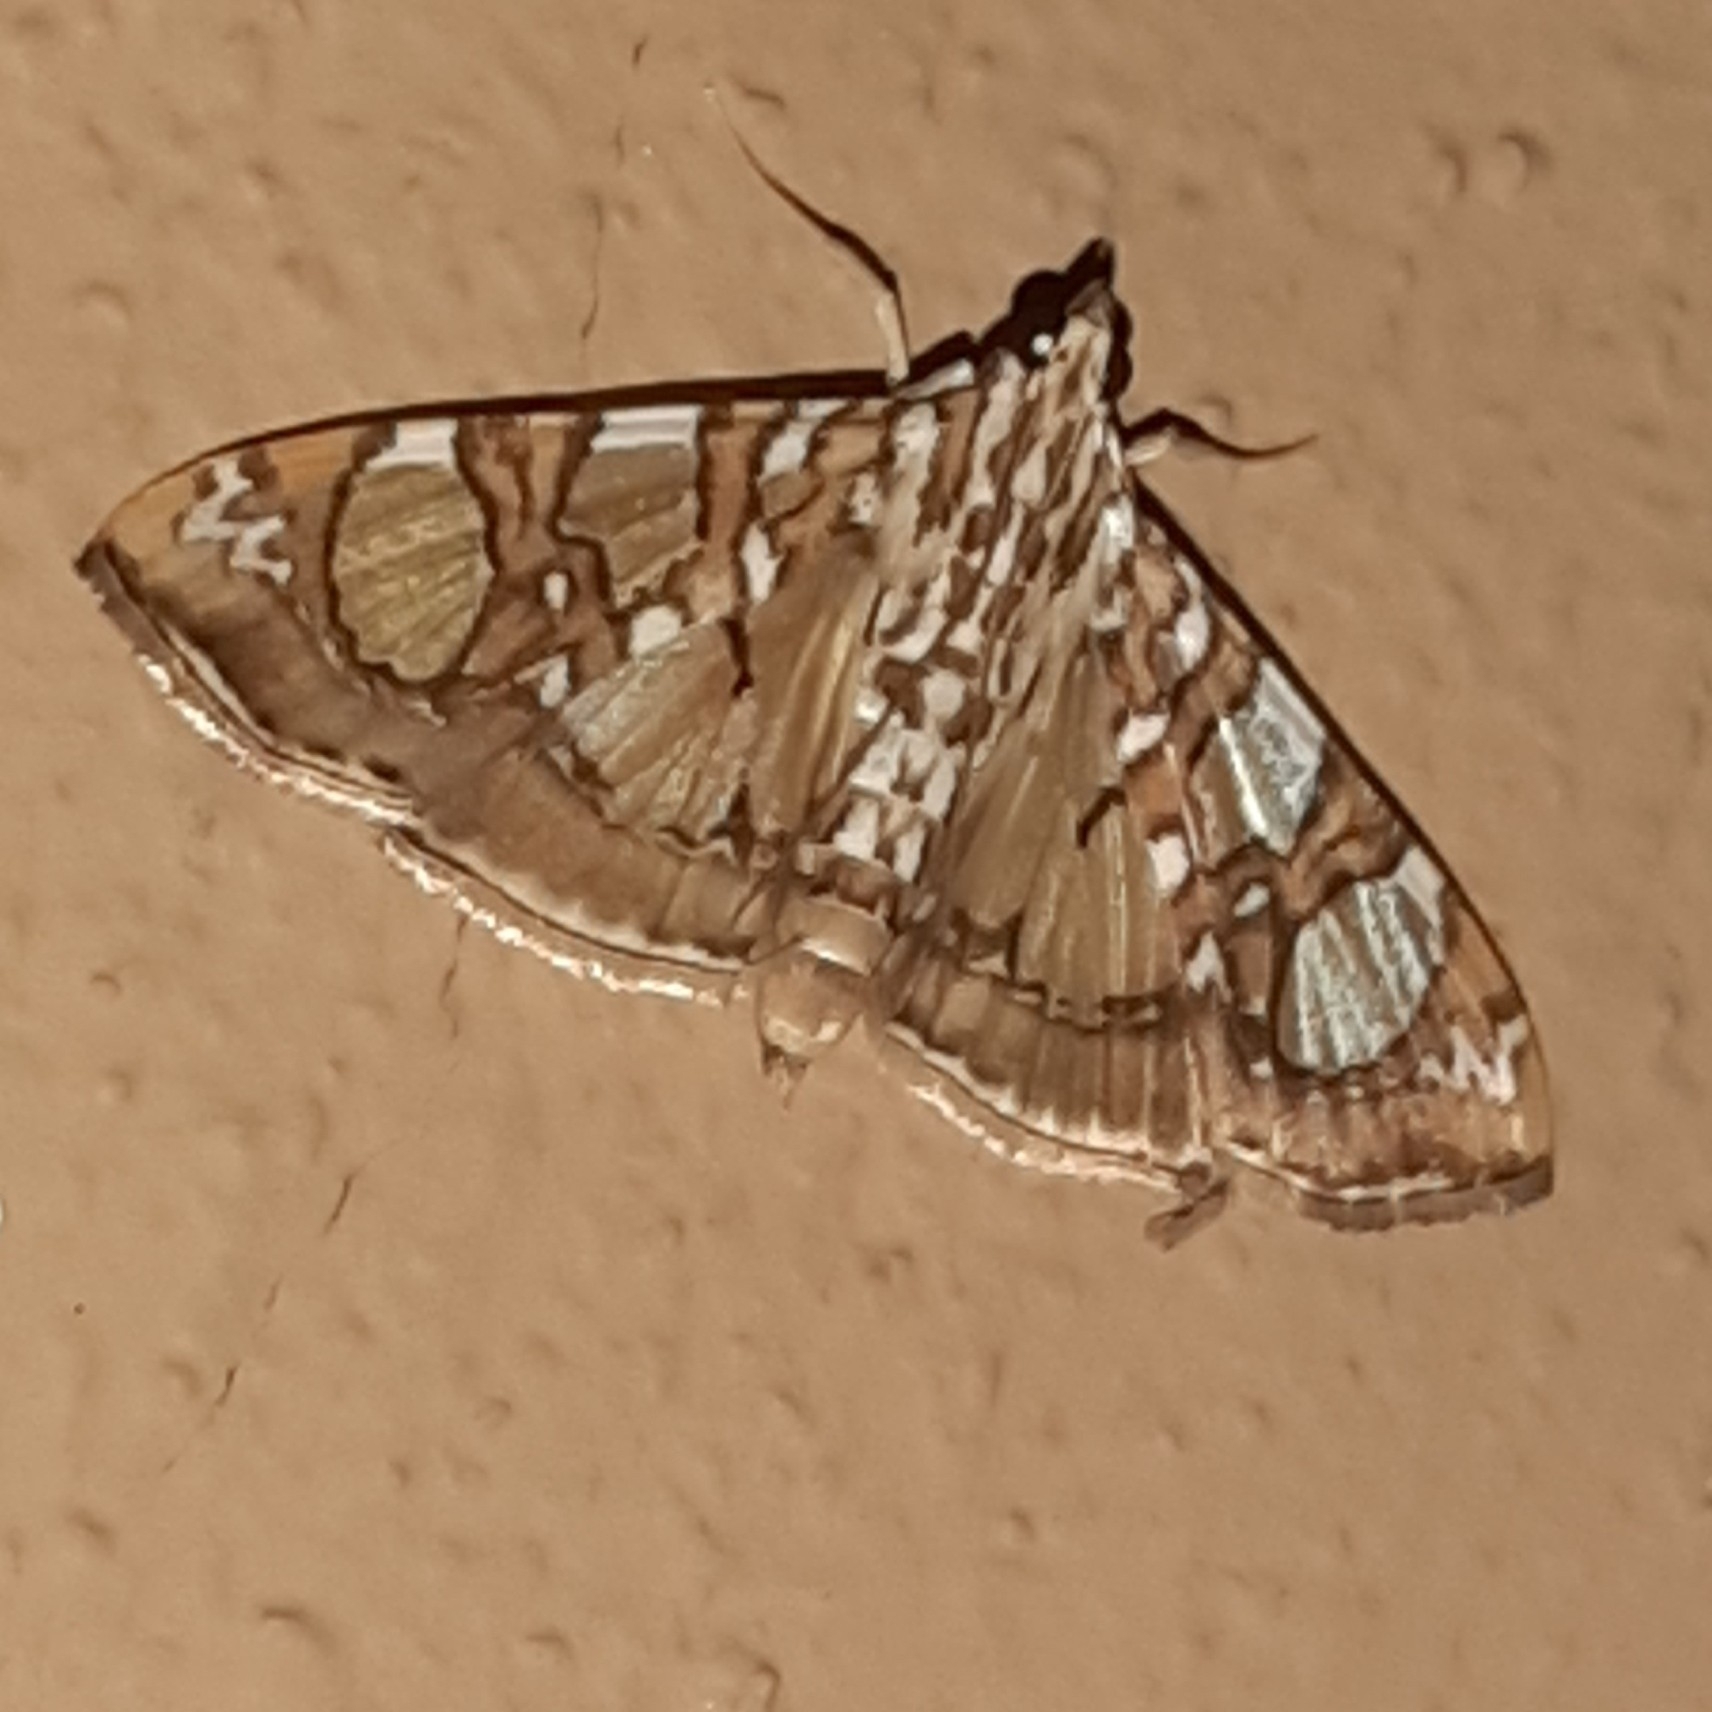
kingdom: Animalia
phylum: Arthropoda
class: Insecta
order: Lepidoptera
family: Crambidae
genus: Glyphodes
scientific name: Glyphodes sibillalis
